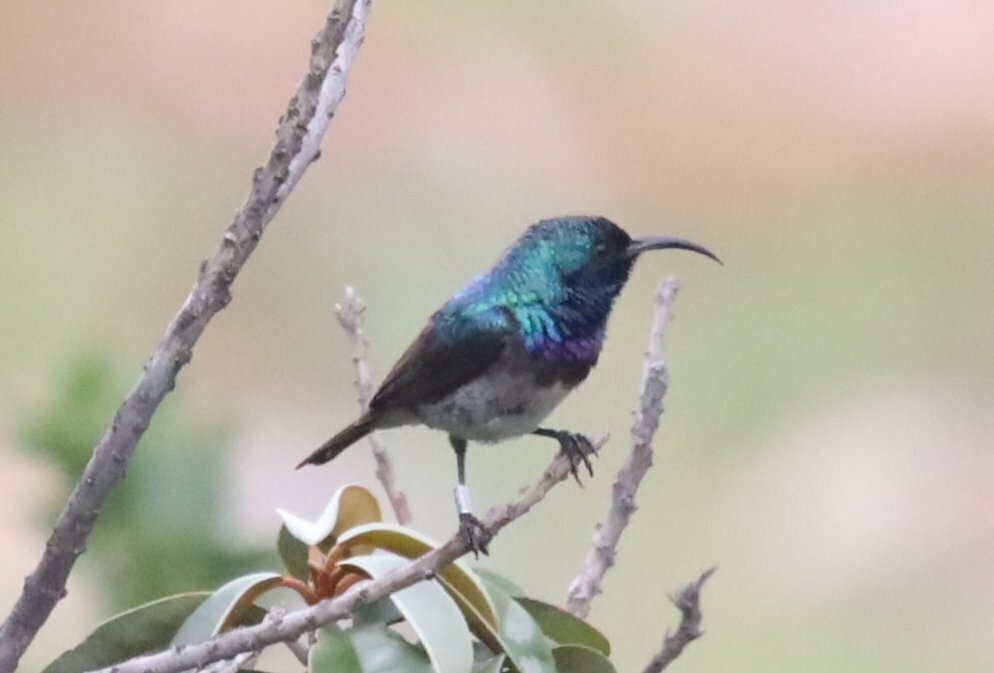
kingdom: Animalia
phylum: Chordata
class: Aves
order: Passeriformes
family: Nectariniidae
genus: Cinnyris
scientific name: Cinnyris talatala
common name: White-bellied sunbird
